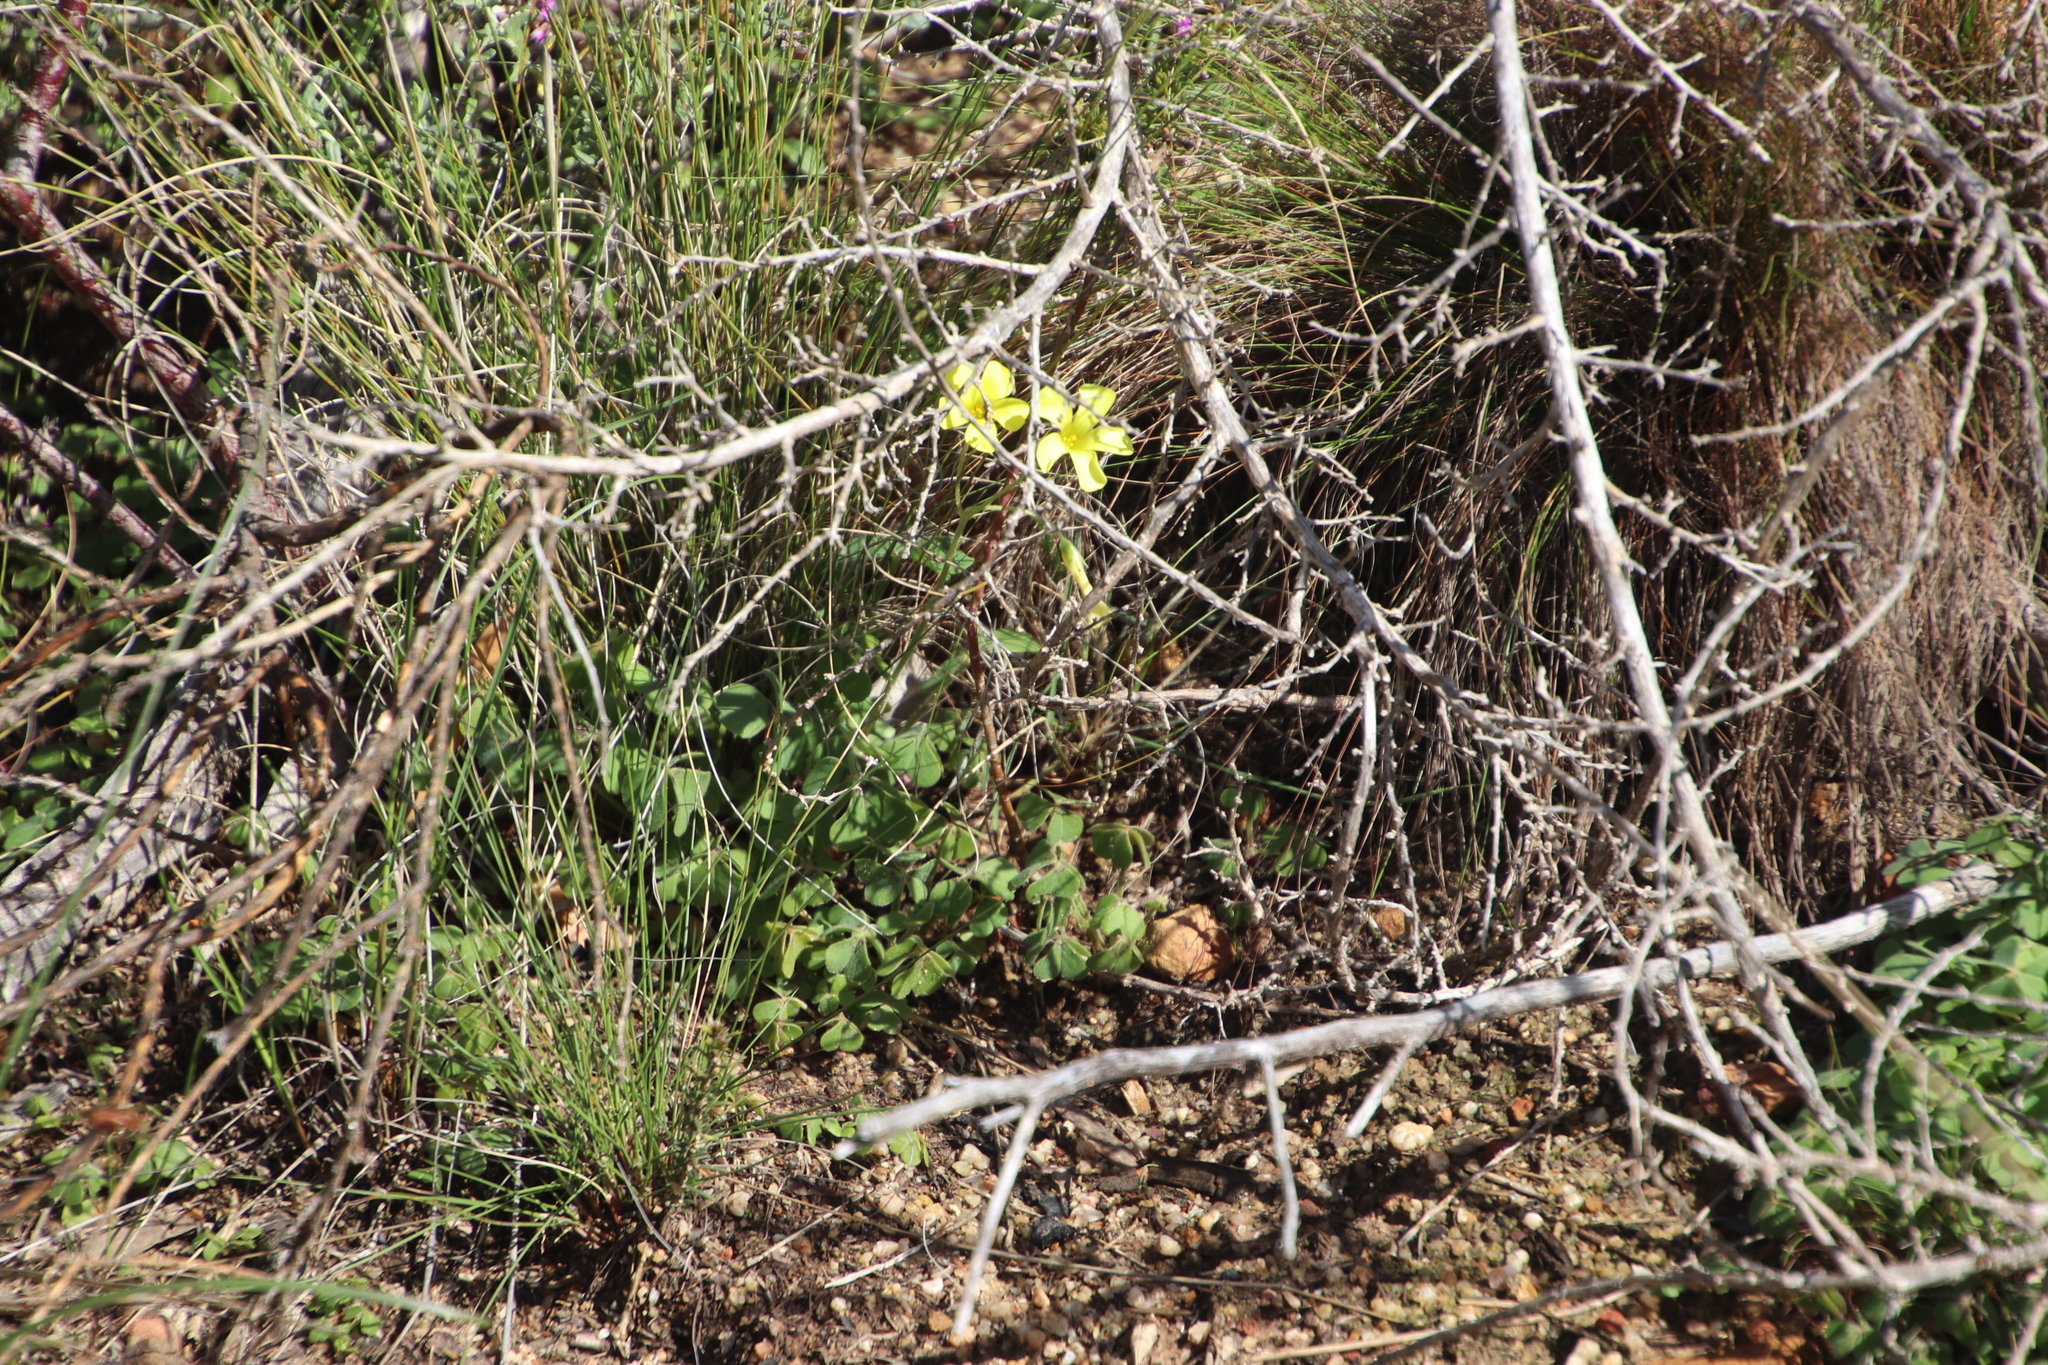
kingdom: Plantae
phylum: Tracheophyta
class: Magnoliopsida
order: Oxalidales
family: Oxalidaceae
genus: Oxalis
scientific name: Oxalis pes-caprae
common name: Bermuda-buttercup
